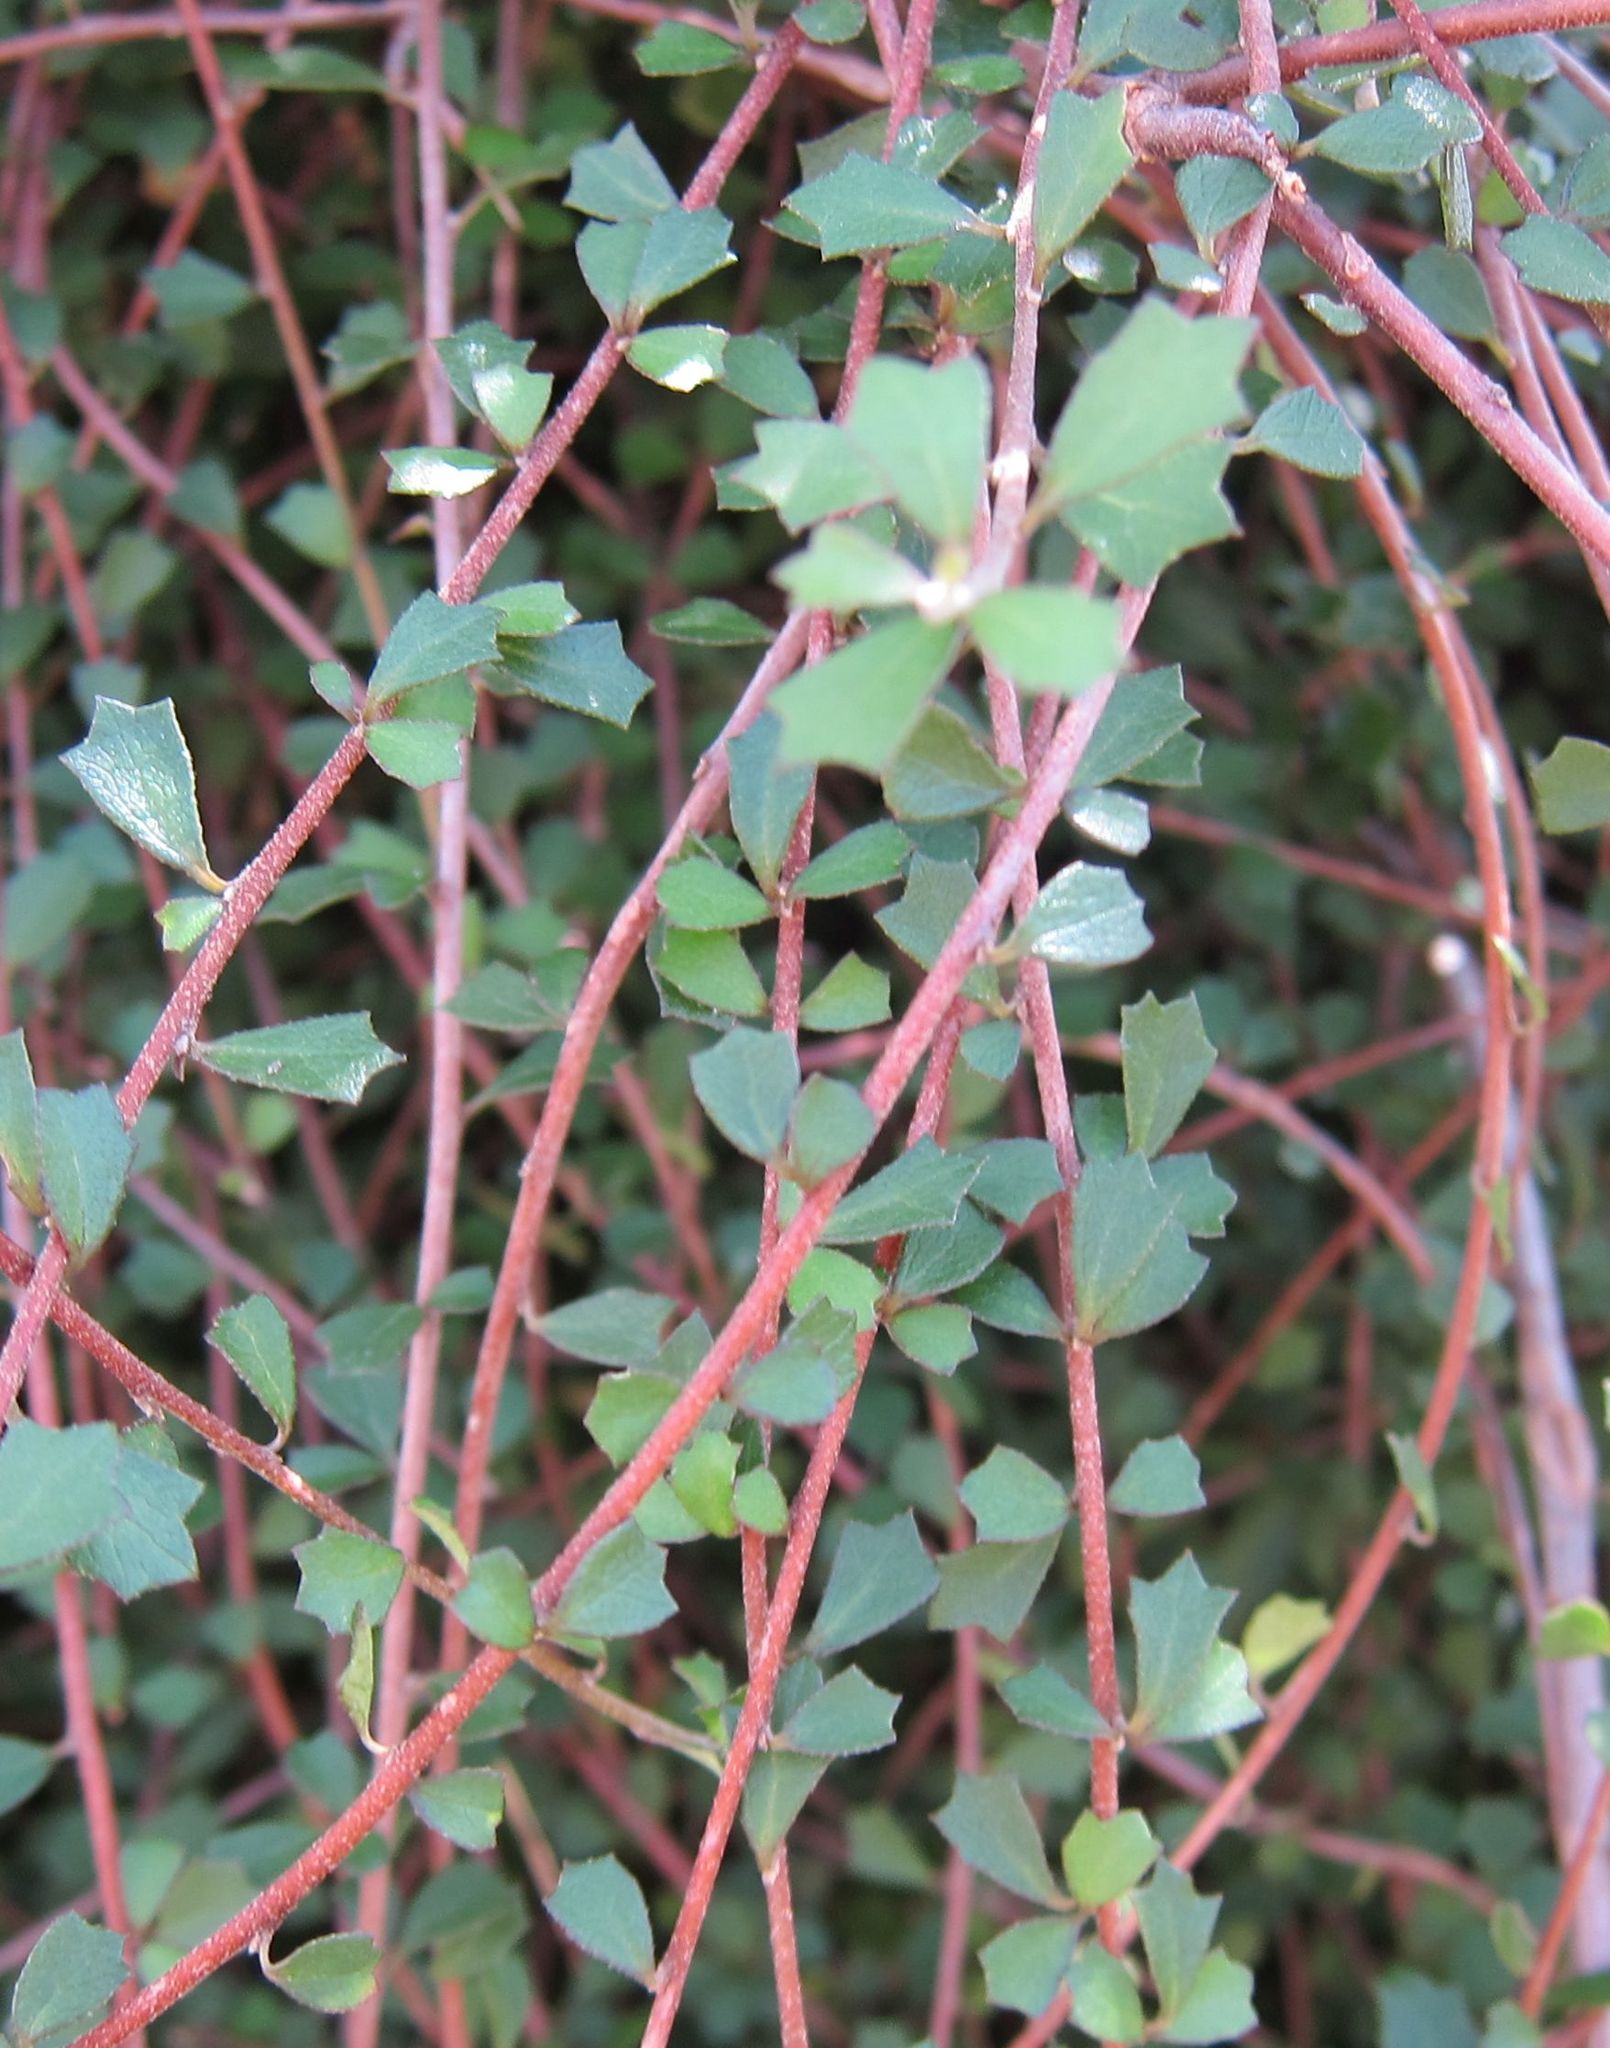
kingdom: Plantae
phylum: Tracheophyta
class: Magnoliopsida
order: Malvales
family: Malvaceae
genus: Hoheria
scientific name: Hoheria angustifolia
